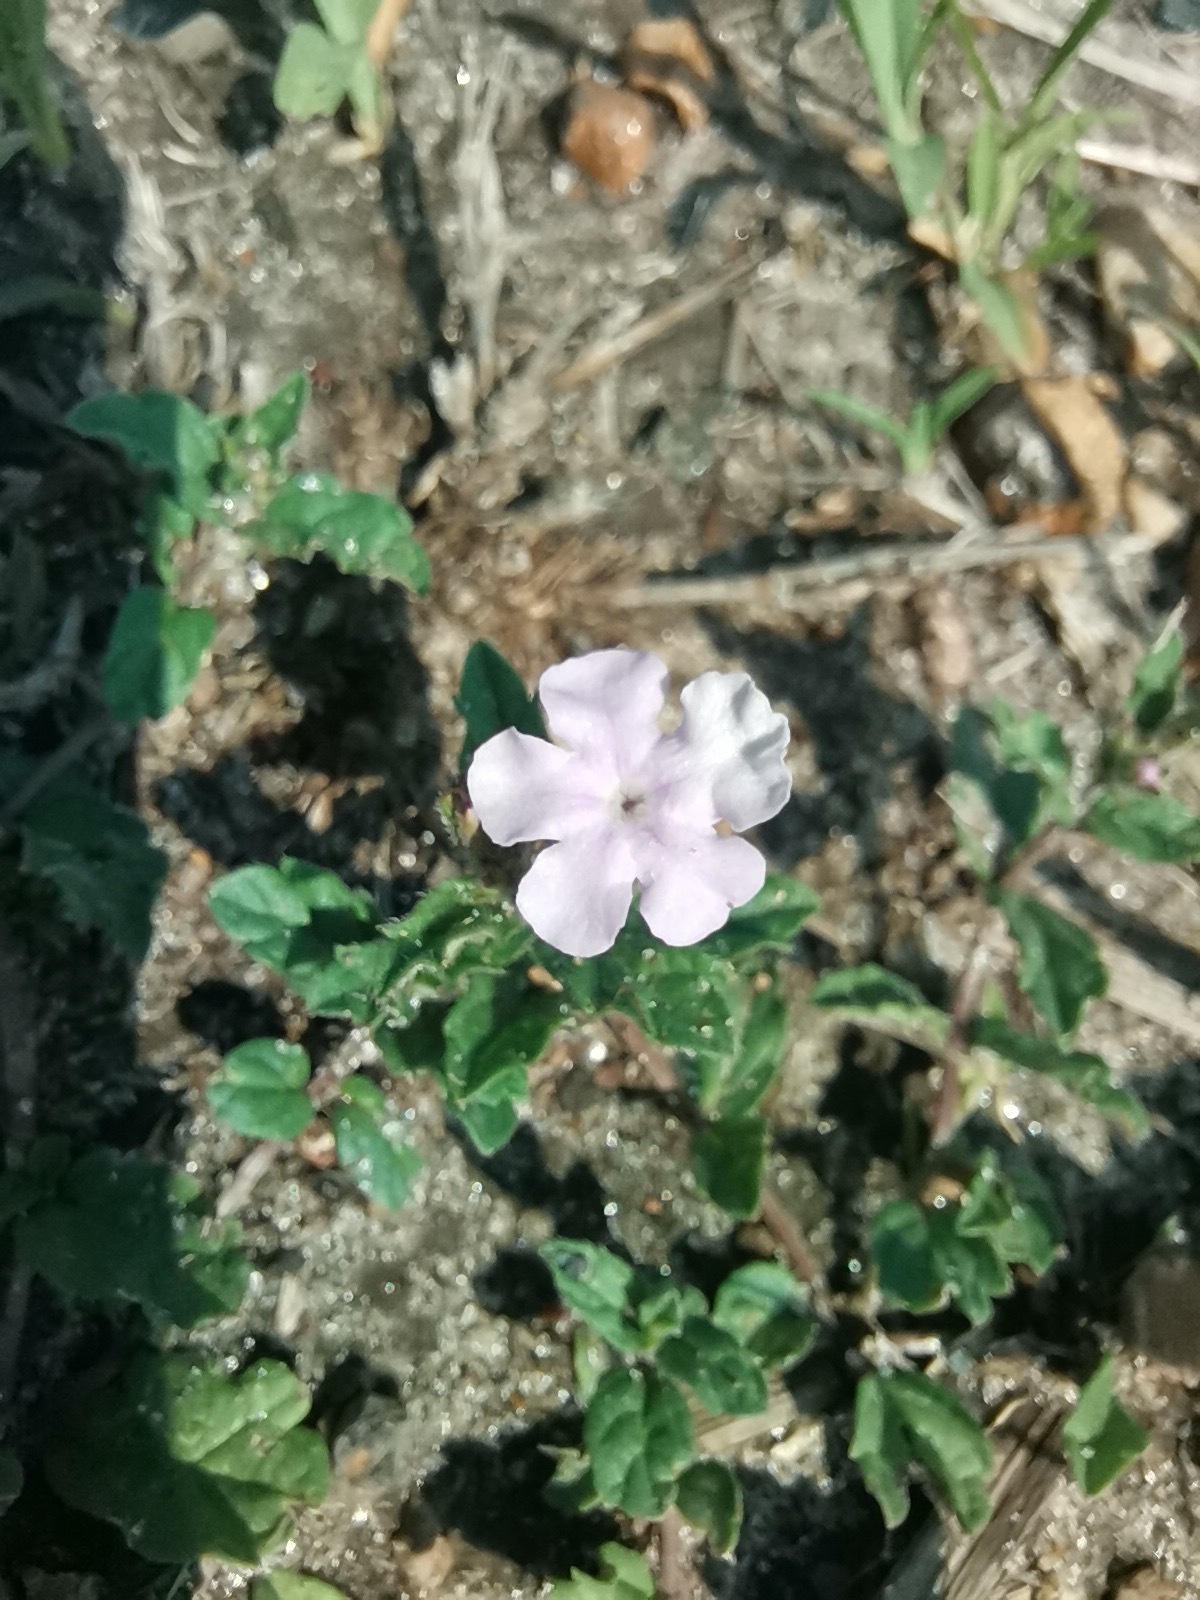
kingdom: Plantae
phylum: Tracheophyta
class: Magnoliopsida
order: Lamiales
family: Verbenaceae
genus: Priva
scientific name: Priva grandiflora
